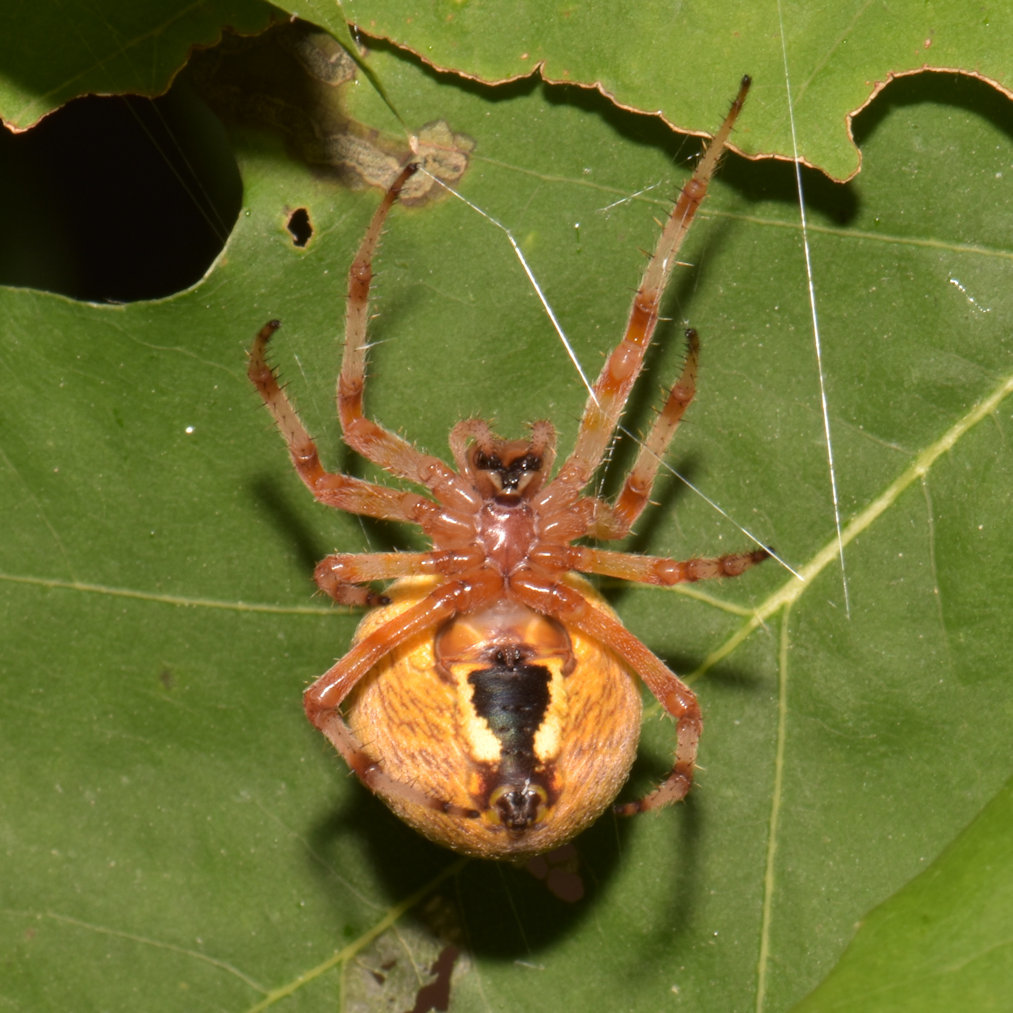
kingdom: Animalia
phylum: Arthropoda
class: Arachnida
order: Araneae
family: Araneidae
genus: Araneus
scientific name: Araneus marmoreus
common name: Marbled orbweaver
